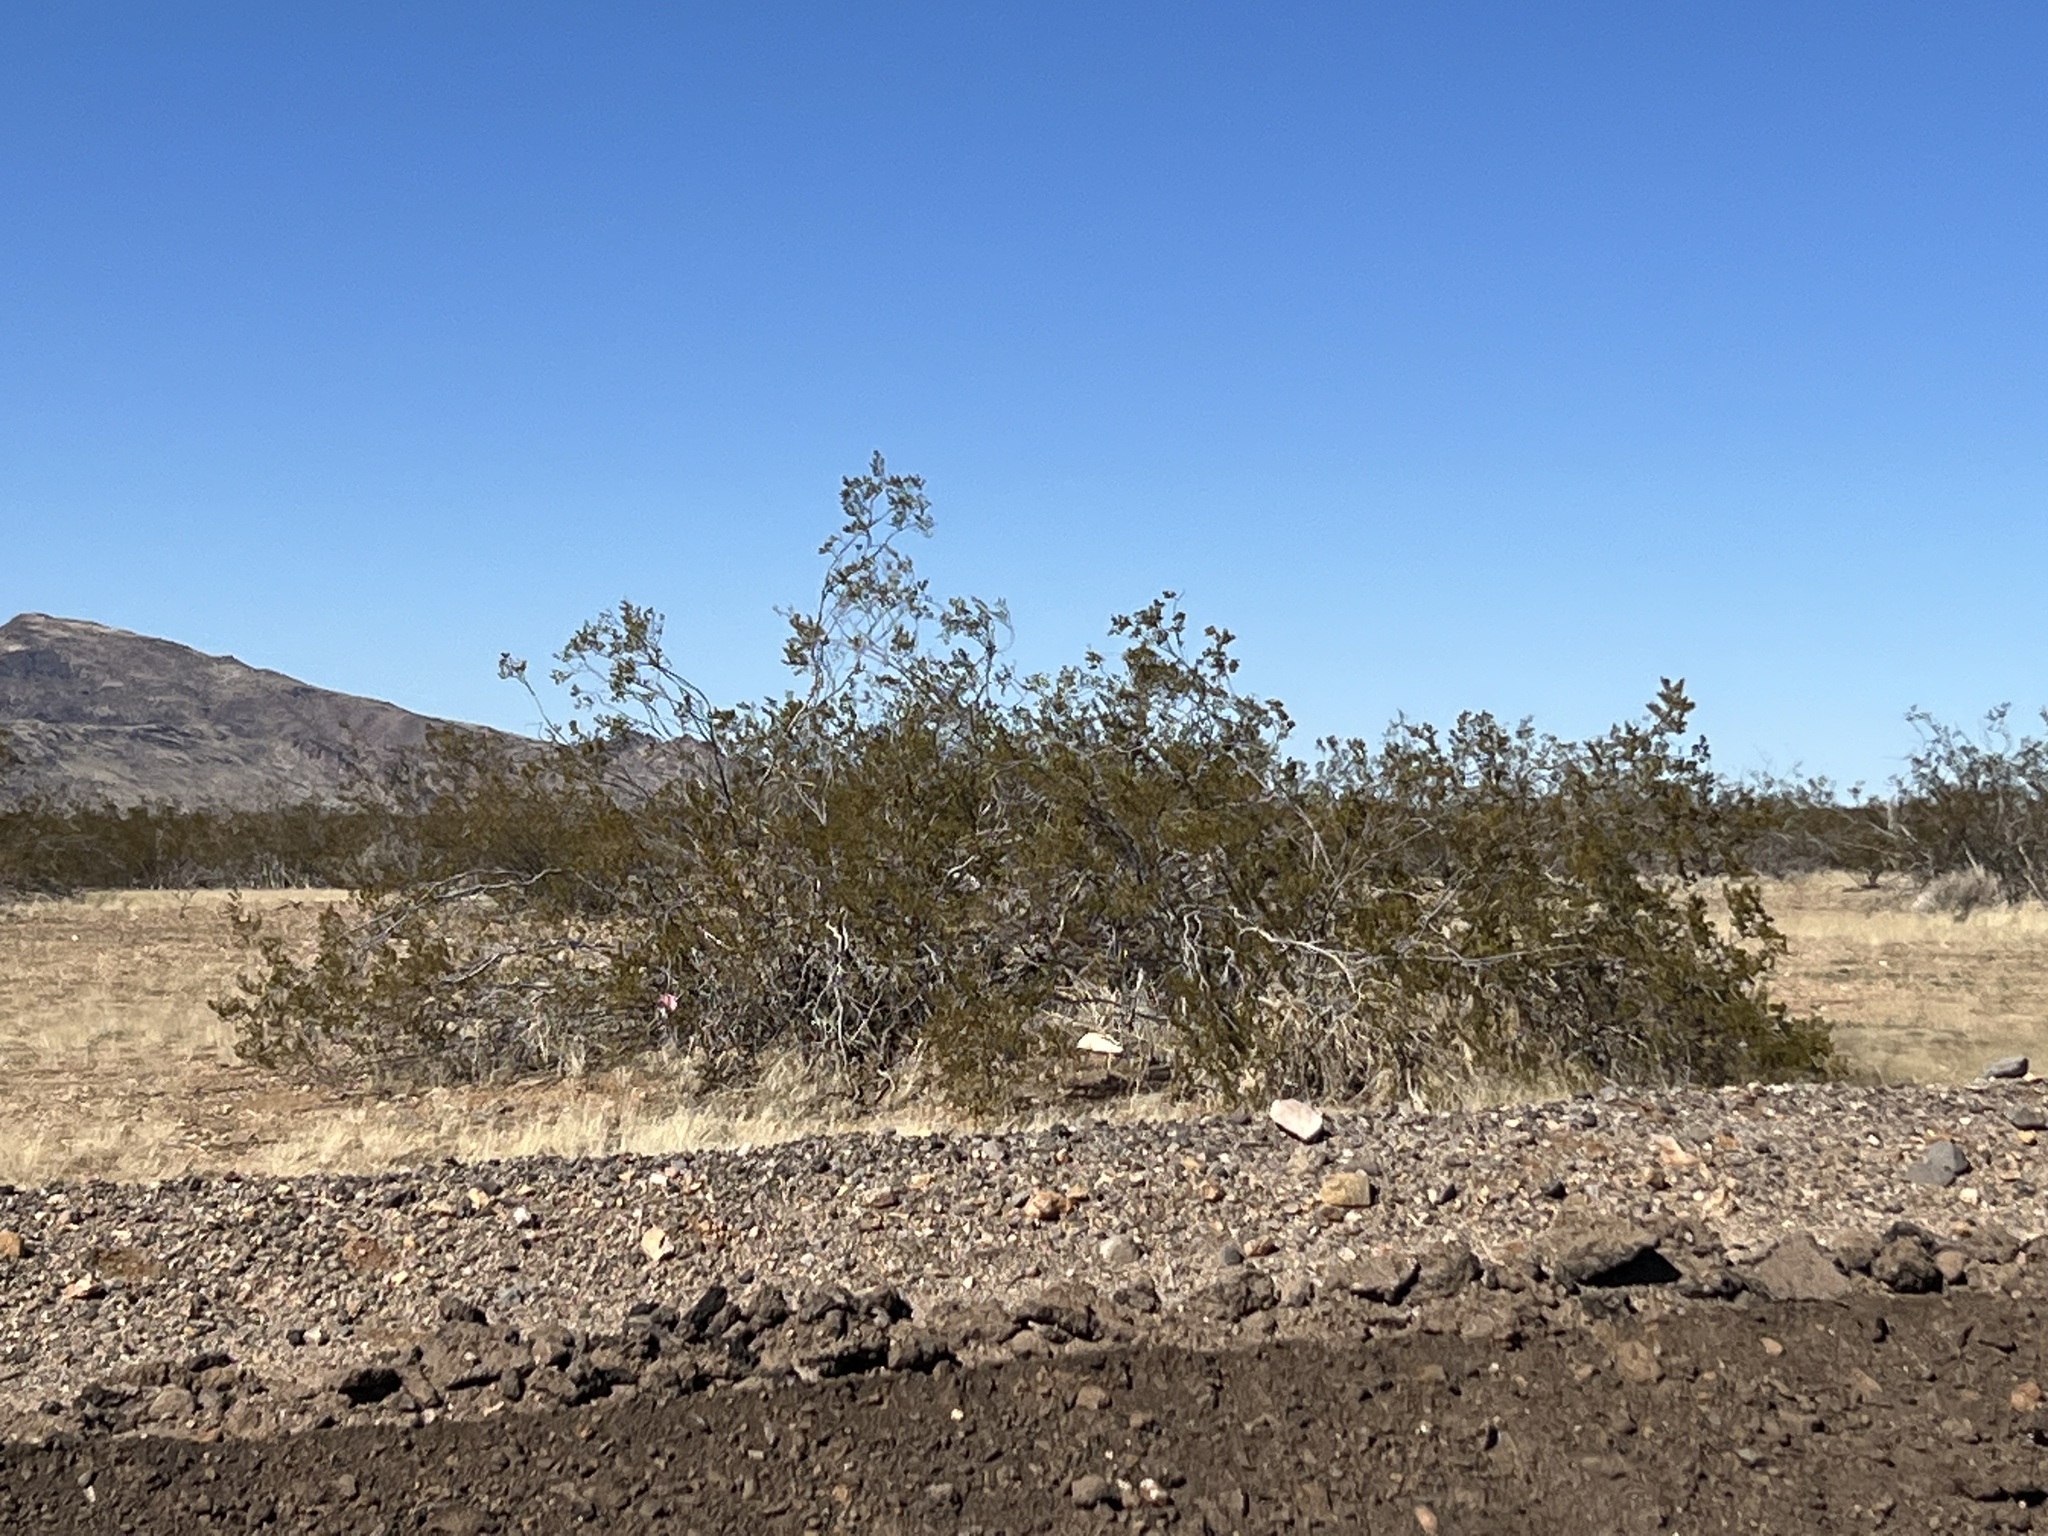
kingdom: Plantae
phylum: Tracheophyta
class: Magnoliopsida
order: Zygophyllales
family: Zygophyllaceae
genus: Larrea
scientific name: Larrea tridentata
